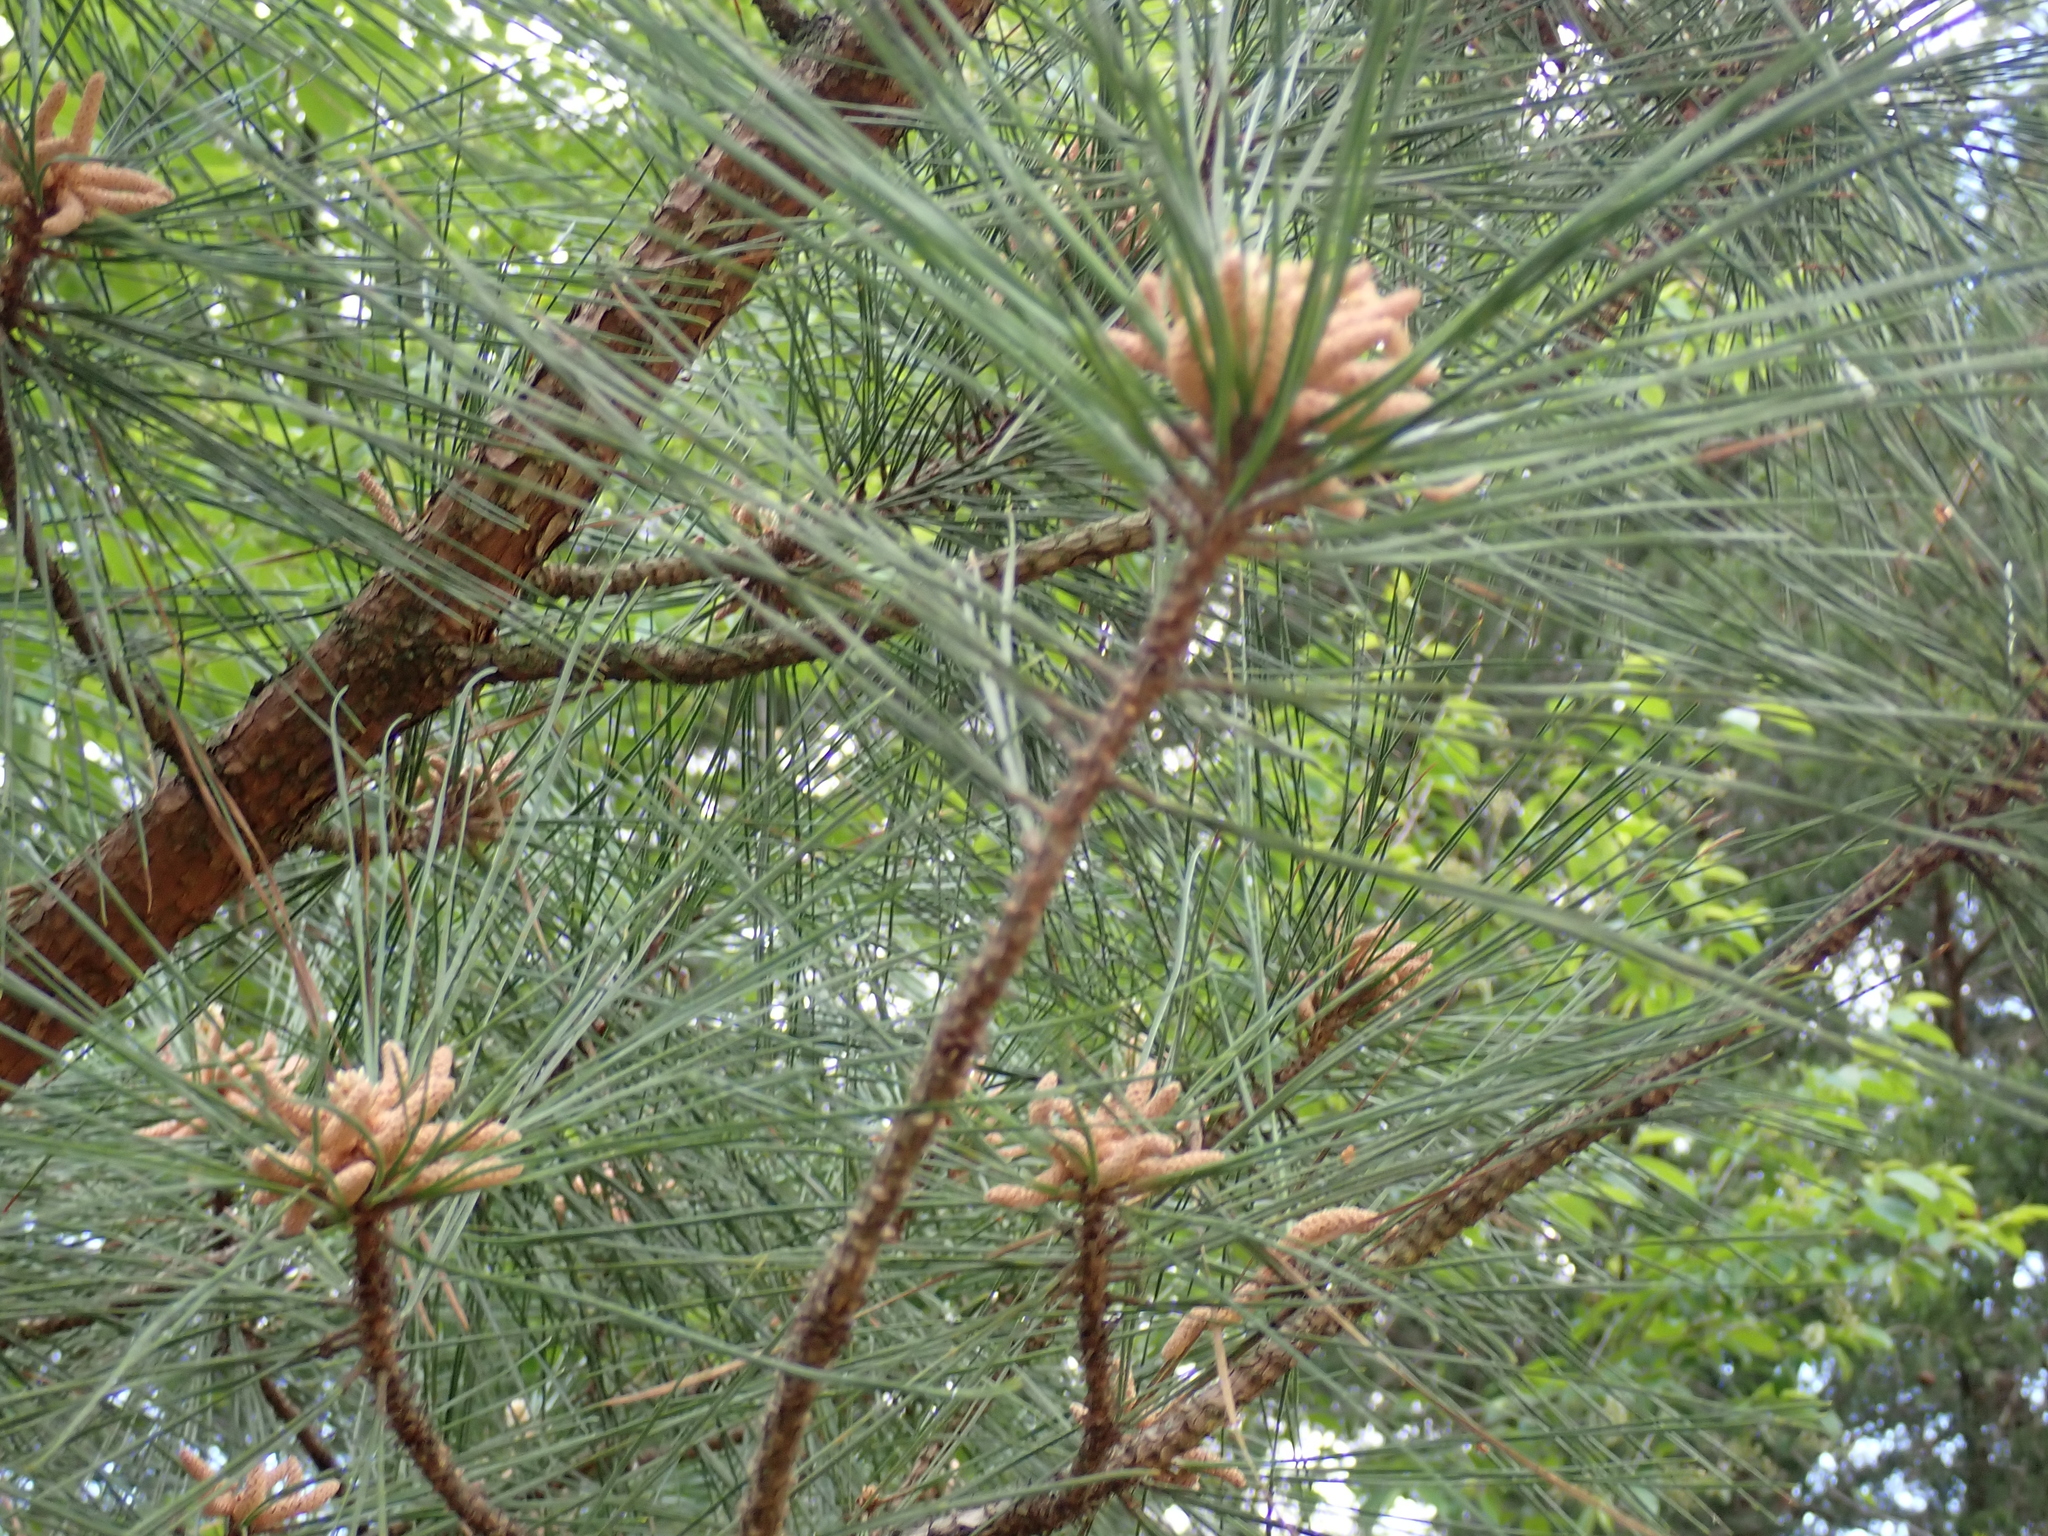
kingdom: Plantae
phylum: Tracheophyta
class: Pinopsida
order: Pinales
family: Pinaceae
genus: Pinus
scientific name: Pinus taeda
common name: Loblolly pine
